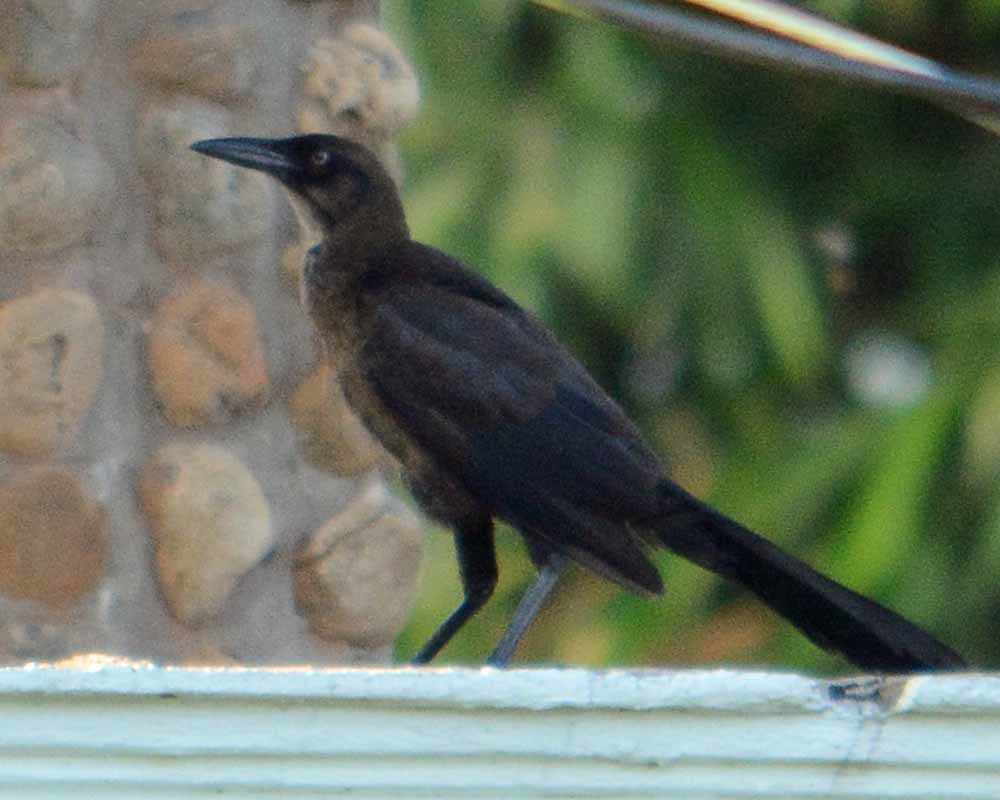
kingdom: Animalia
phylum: Chordata
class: Aves
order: Passeriformes
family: Icteridae
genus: Quiscalus
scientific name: Quiscalus mexicanus
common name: Great-tailed grackle
